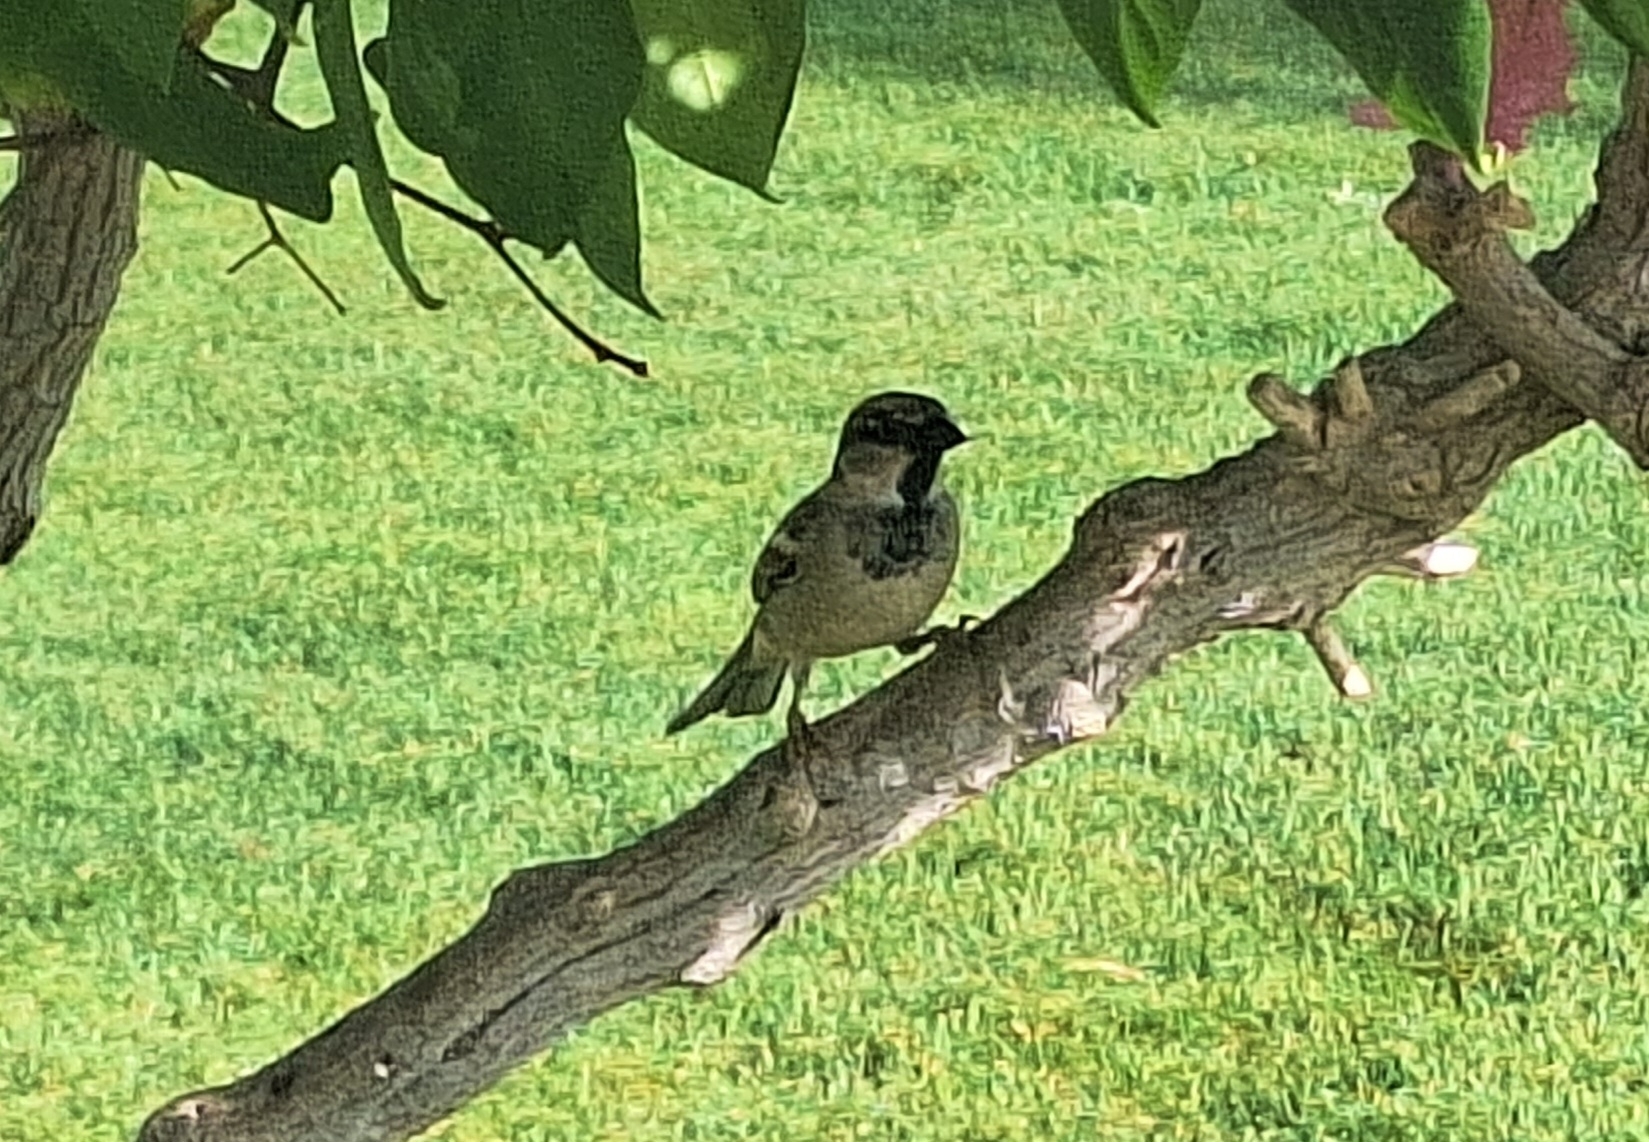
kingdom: Animalia
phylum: Chordata
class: Aves
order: Passeriformes
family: Passeridae
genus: Passer
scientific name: Passer domesticus
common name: House sparrow
